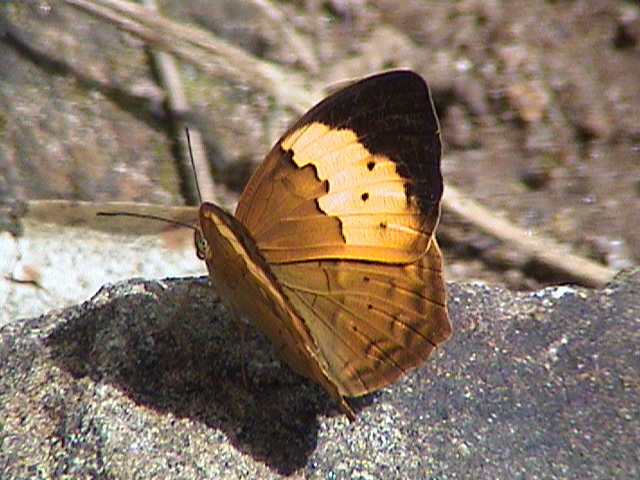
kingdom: Animalia
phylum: Arthropoda
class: Insecta
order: Lepidoptera
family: Nymphalidae
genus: Cupha
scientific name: Cupha erymanthis
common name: Rustic
